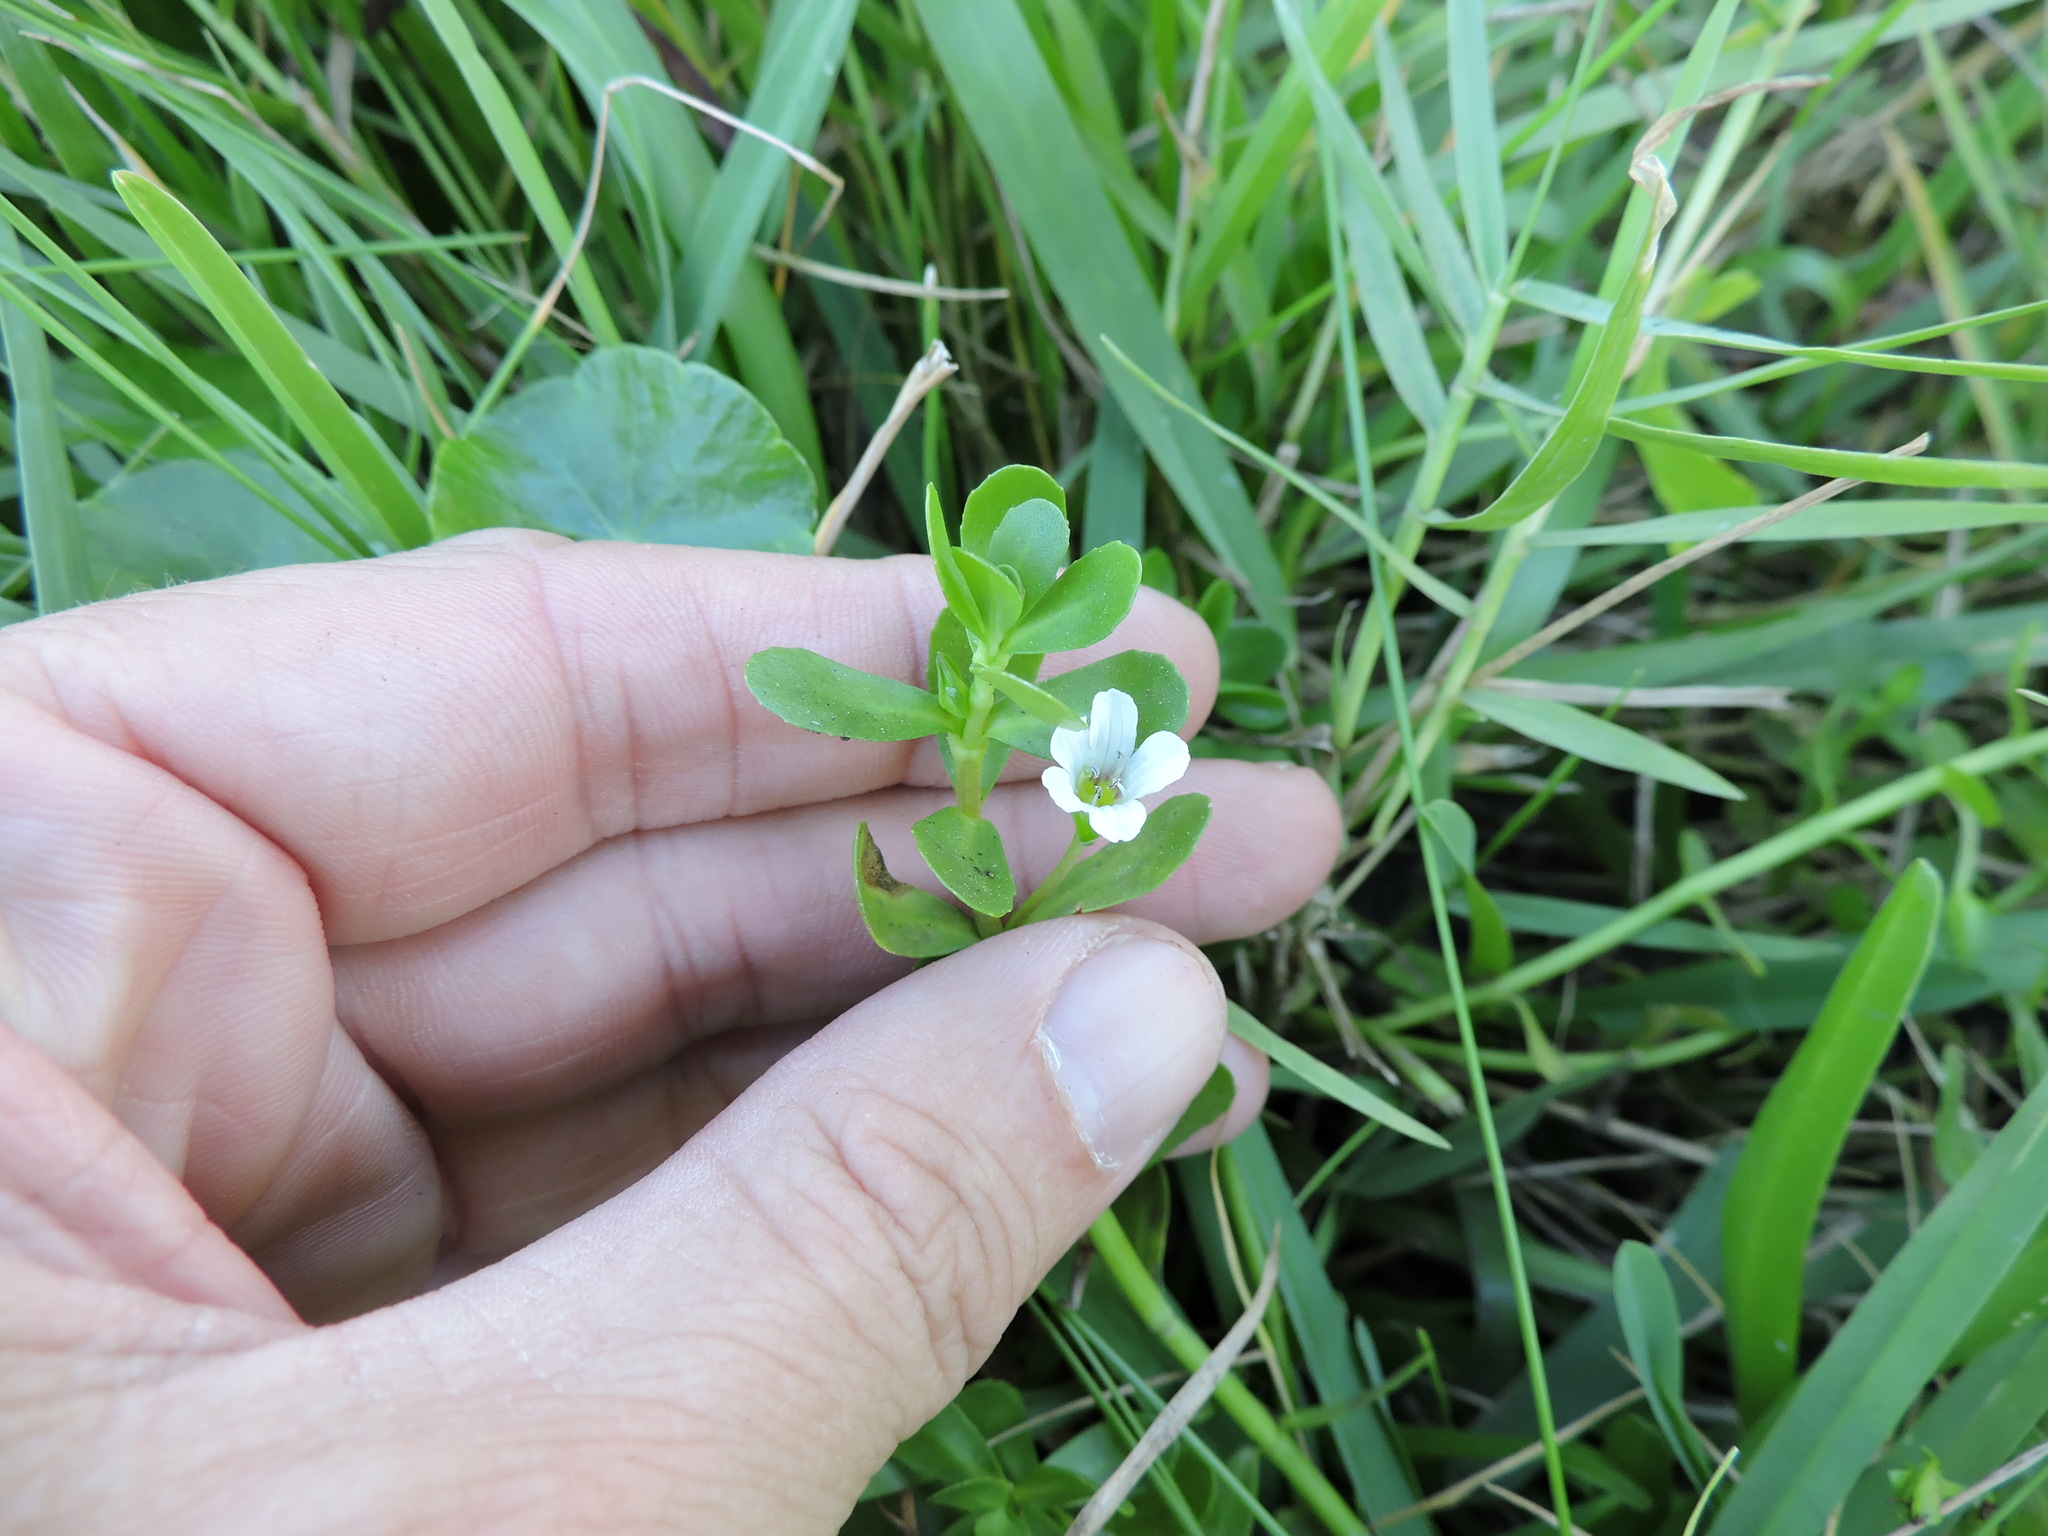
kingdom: Plantae
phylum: Tracheophyta
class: Magnoliopsida
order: Lamiales
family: Plantaginaceae
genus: Bacopa
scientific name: Bacopa monnieri
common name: Indian-pennywort
